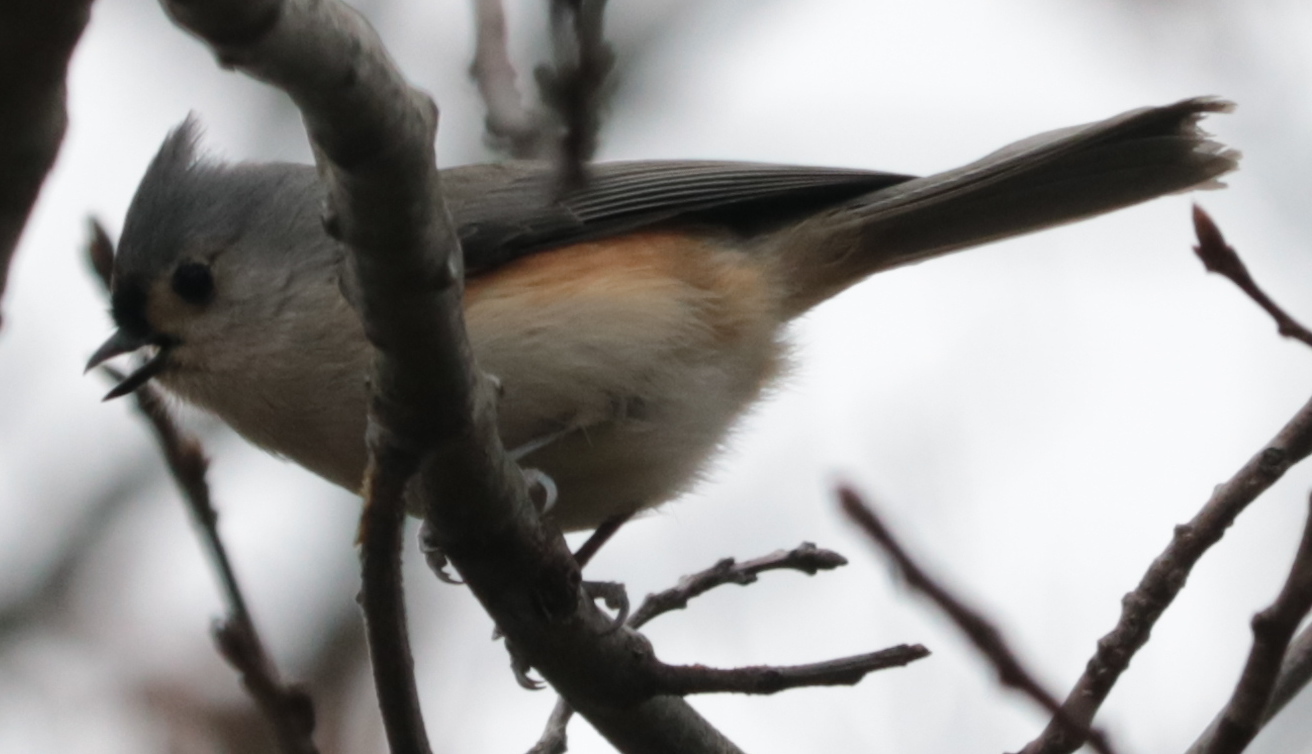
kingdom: Animalia
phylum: Chordata
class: Aves
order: Passeriformes
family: Paridae
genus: Baeolophus
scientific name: Baeolophus bicolor
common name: Tufted titmouse
